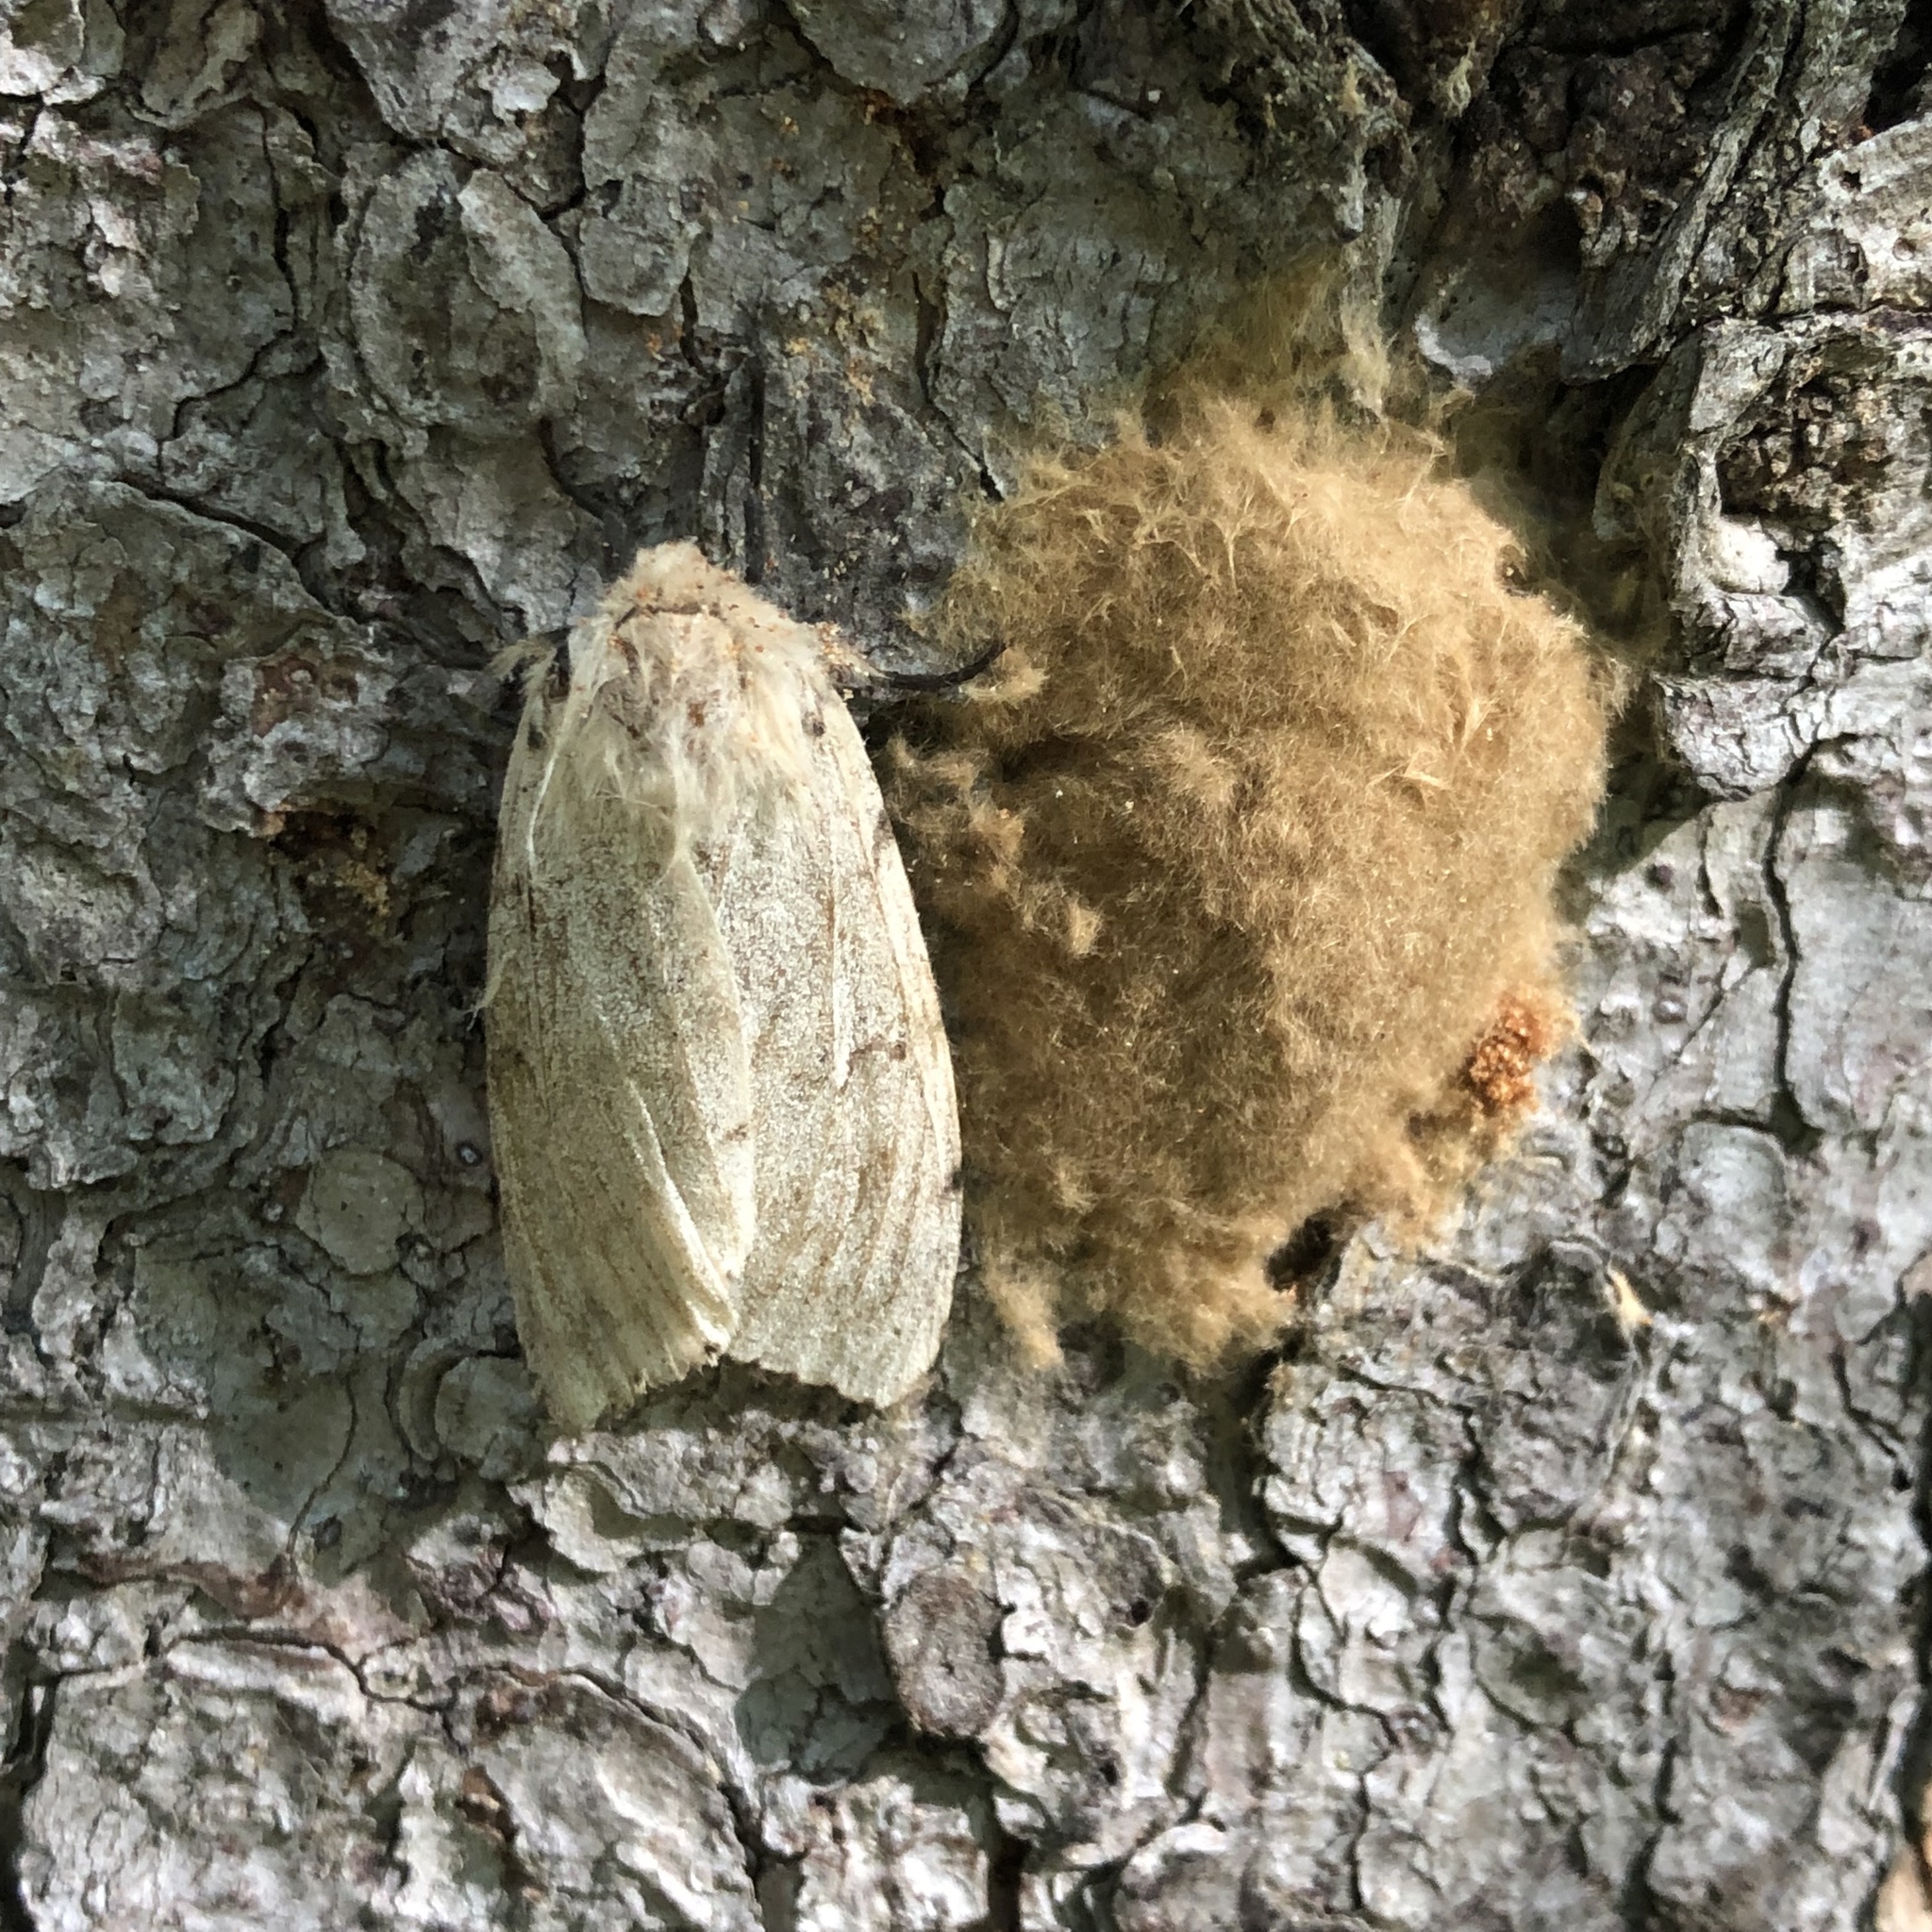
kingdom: Animalia
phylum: Arthropoda
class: Insecta
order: Lepidoptera
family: Erebidae
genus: Lymantria
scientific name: Lymantria dispar
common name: Gypsy moth
